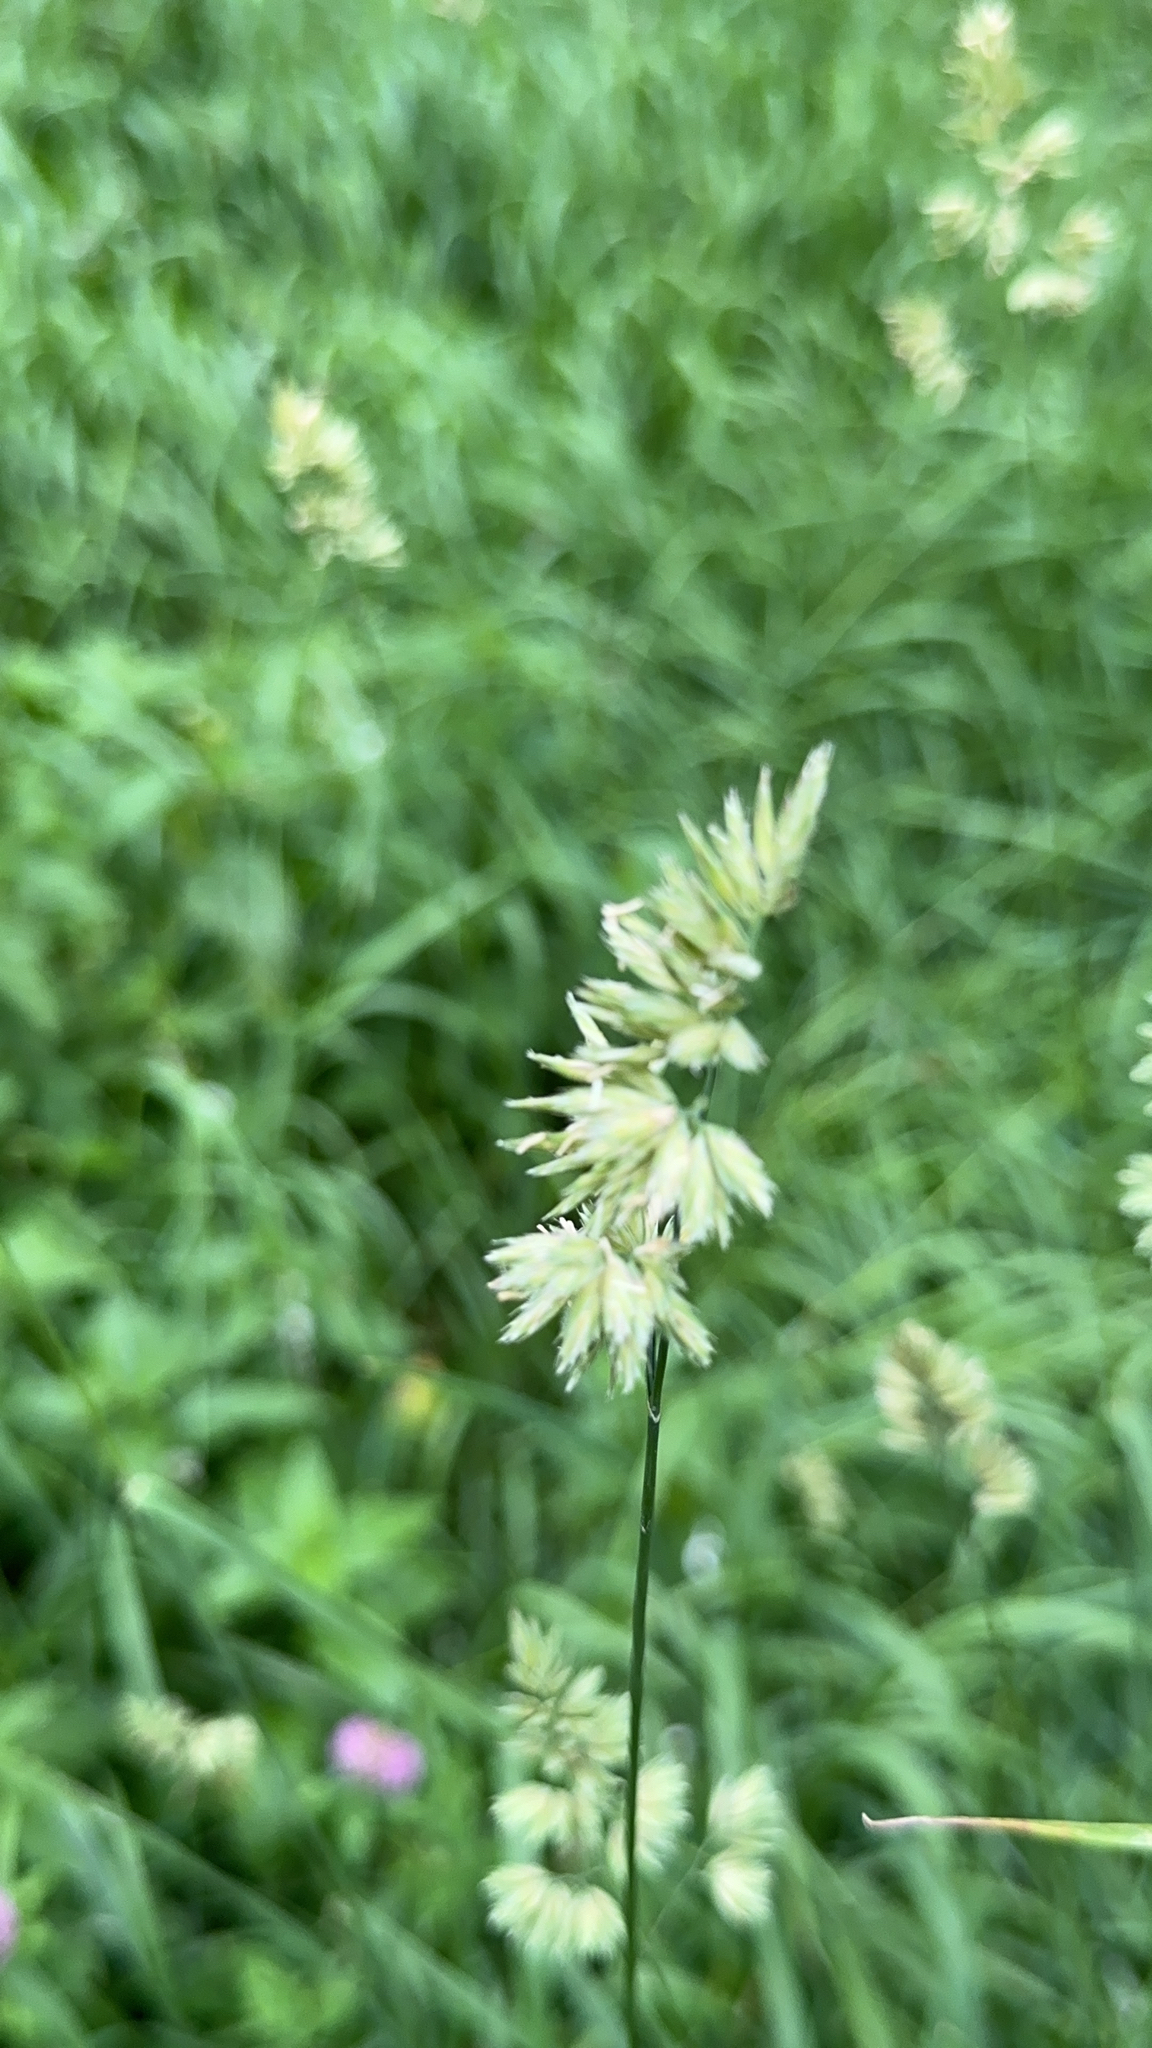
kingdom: Plantae
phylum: Tracheophyta
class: Liliopsida
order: Poales
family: Poaceae
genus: Dactylis
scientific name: Dactylis glomerata
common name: Orchardgrass
